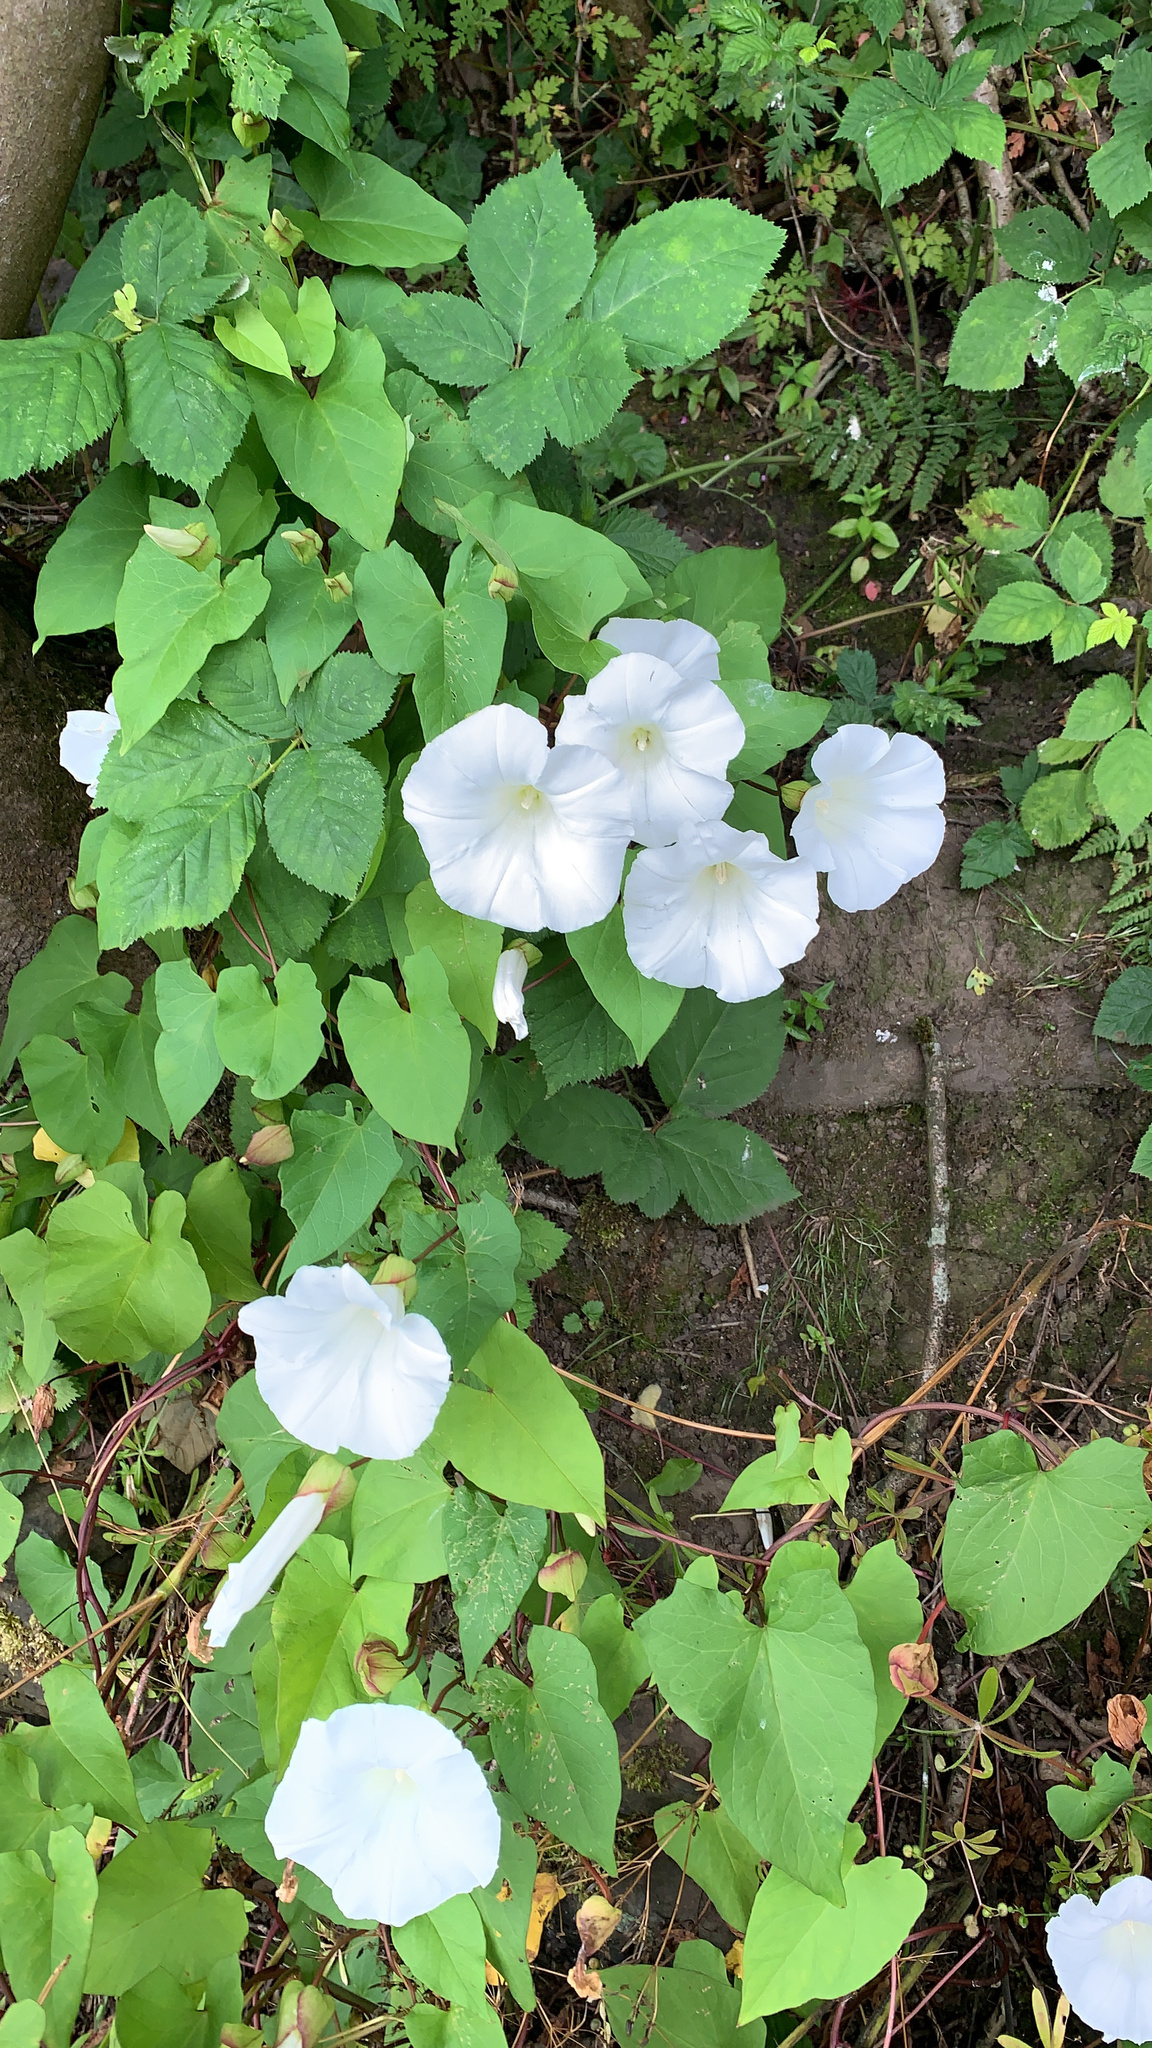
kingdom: Plantae
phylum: Tracheophyta
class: Magnoliopsida
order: Solanales
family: Convolvulaceae
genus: Calystegia
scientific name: Calystegia silvatica
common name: Large bindweed
